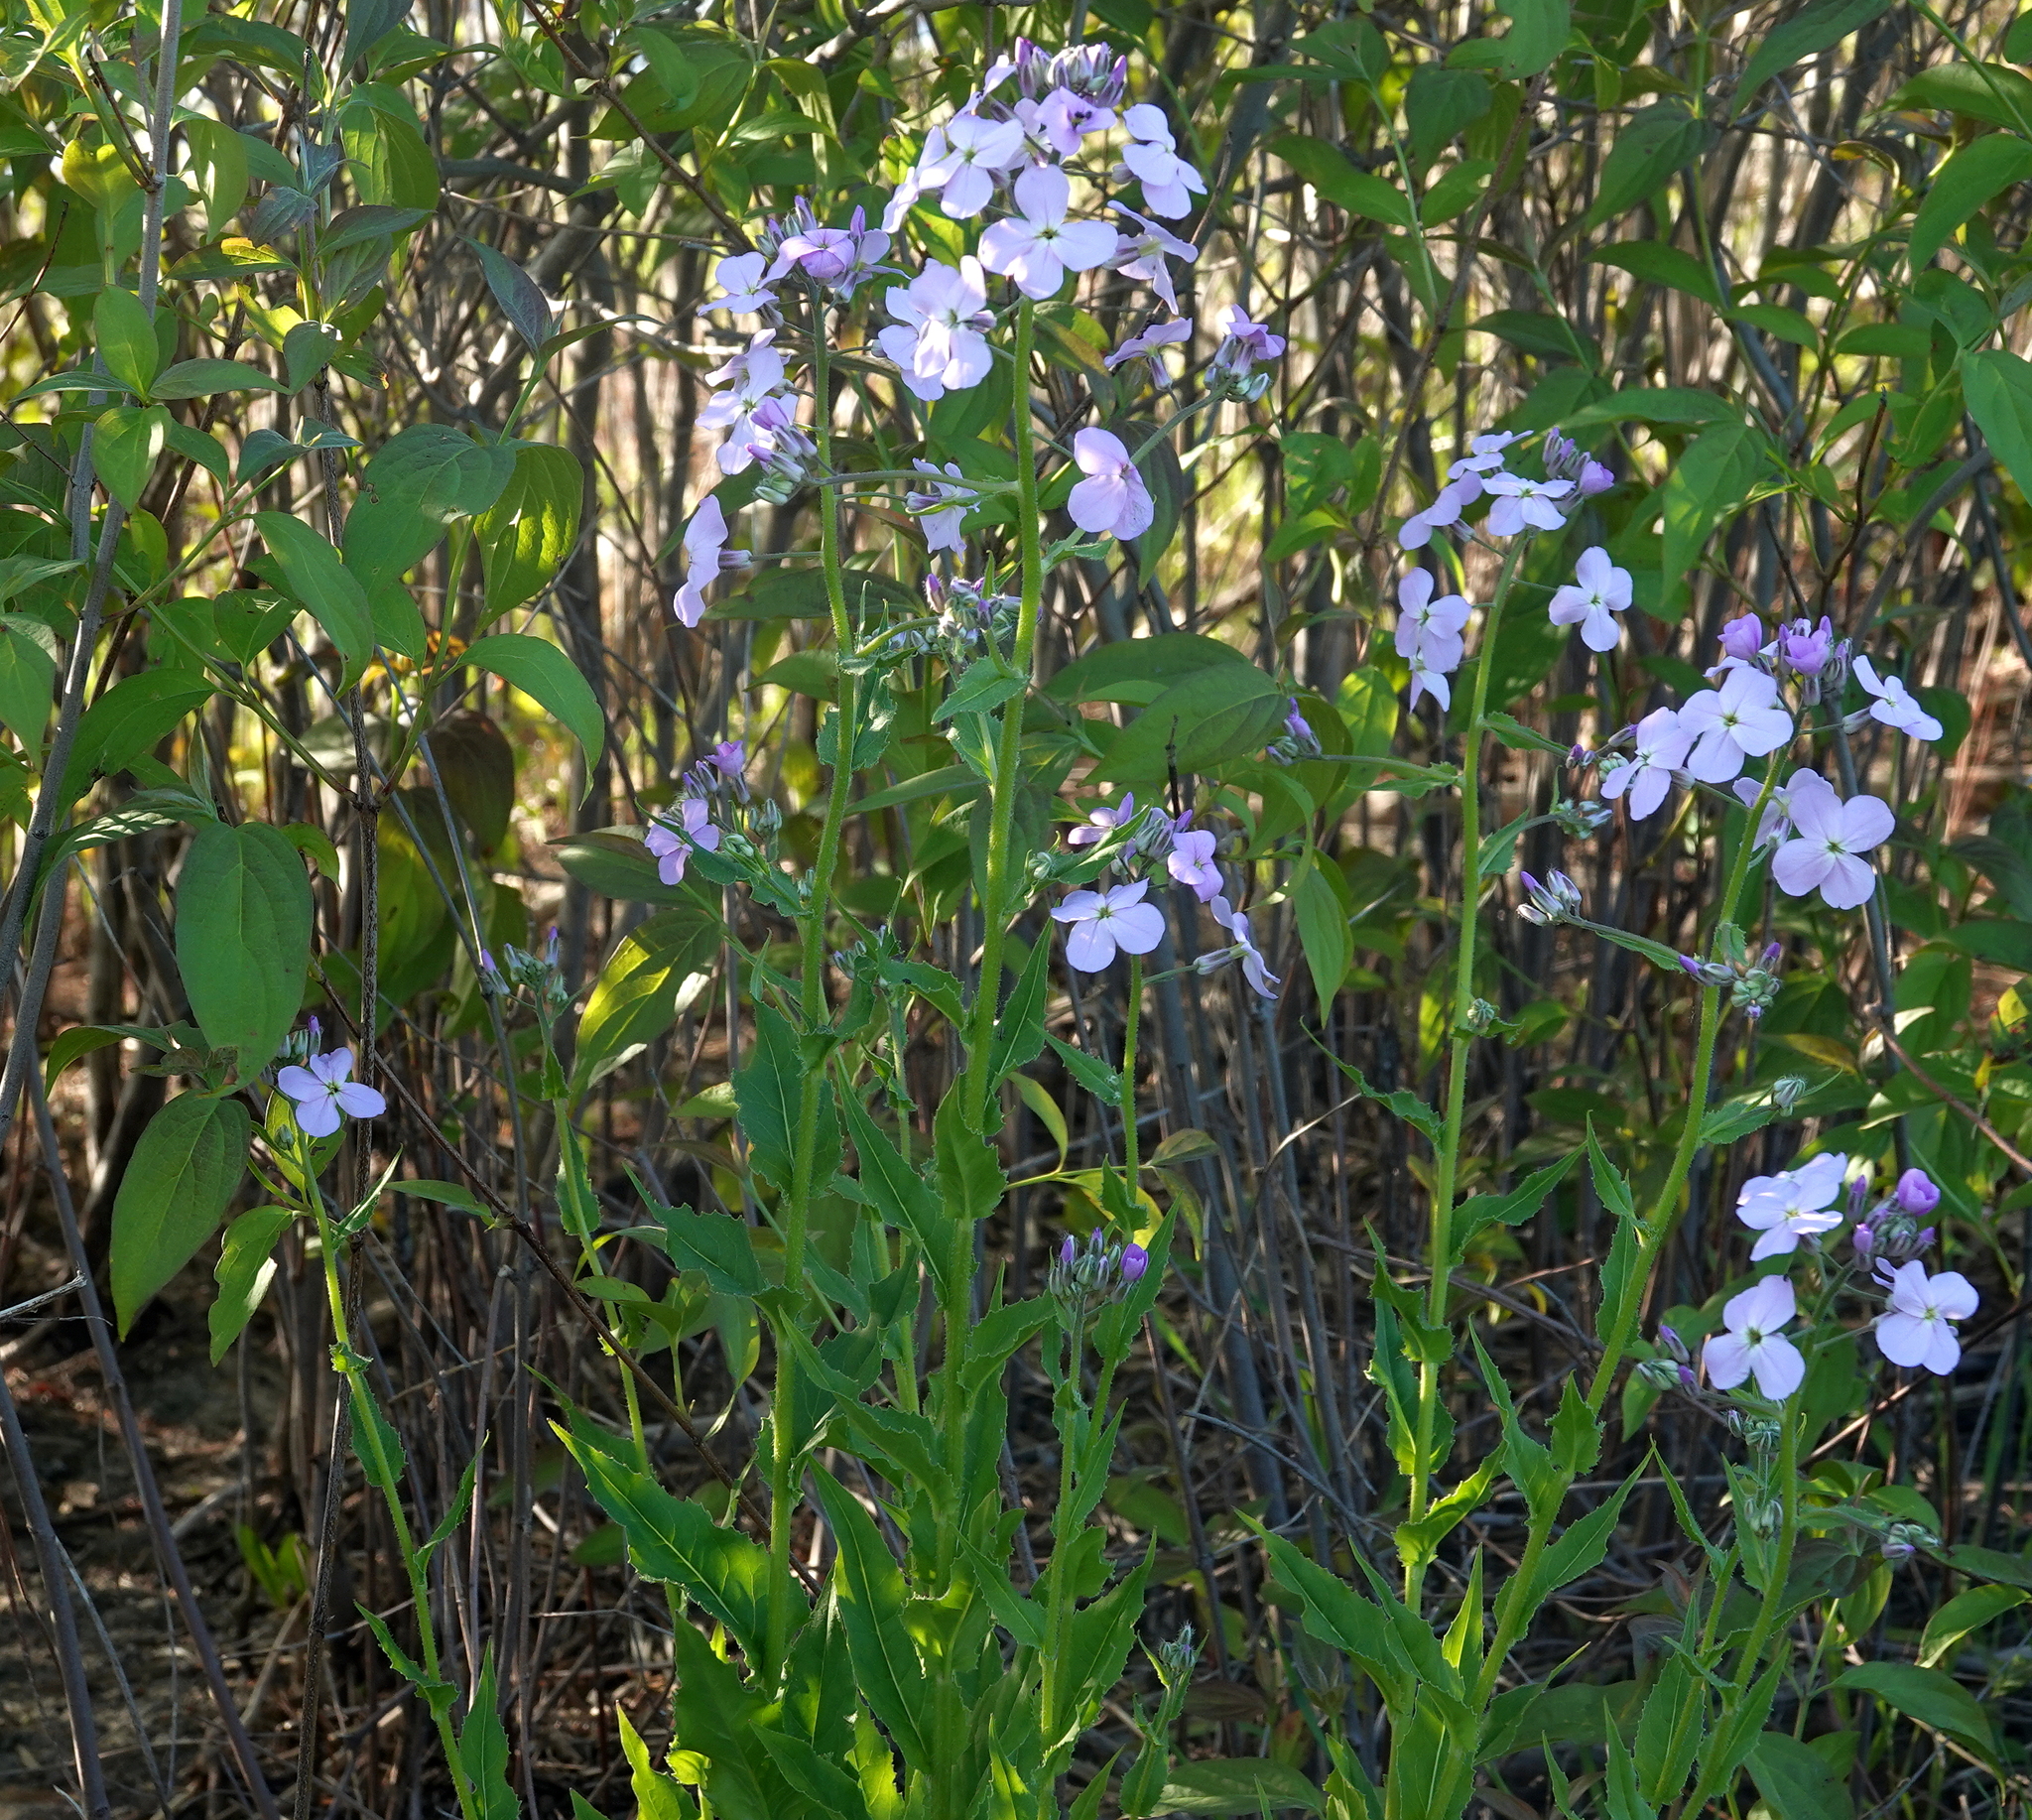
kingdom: Plantae
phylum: Tracheophyta
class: Magnoliopsida
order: Brassicales
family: Brassicaceae
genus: Hesperis
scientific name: Hesperis matronalis
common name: Dame's-violet
